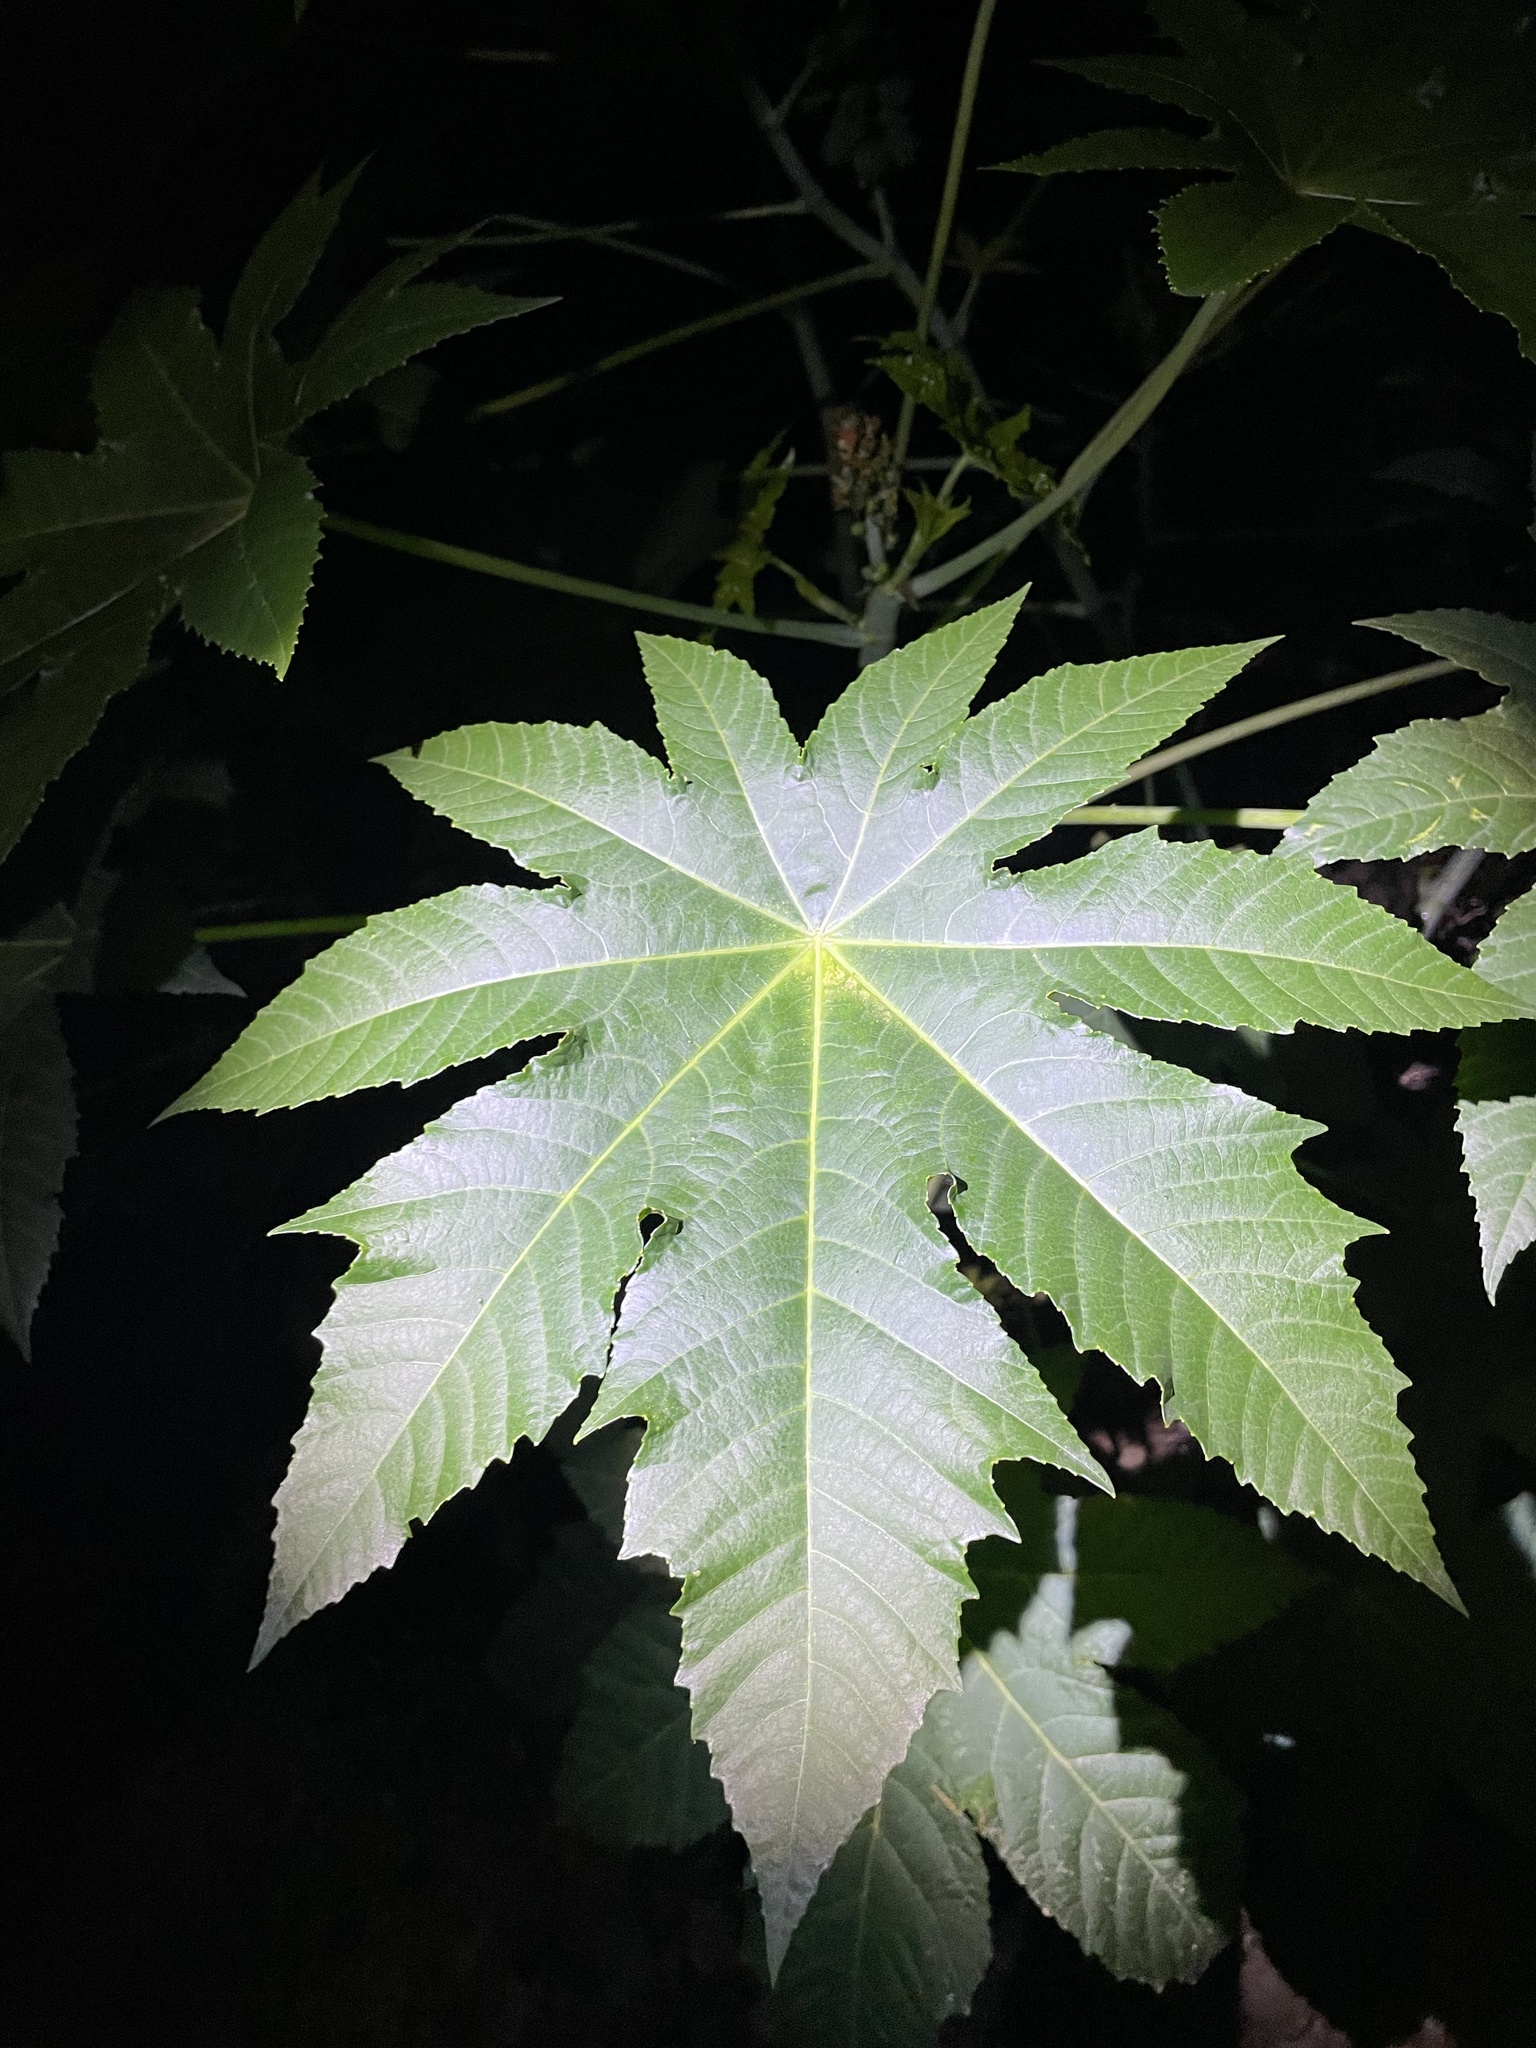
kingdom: Plantae
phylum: Tracheophyta
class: Magnoliopsida
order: Malpighiales
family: Euphorbiaceae
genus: Ricinus
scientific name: Ricinus communis
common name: Castor-oil-plant
